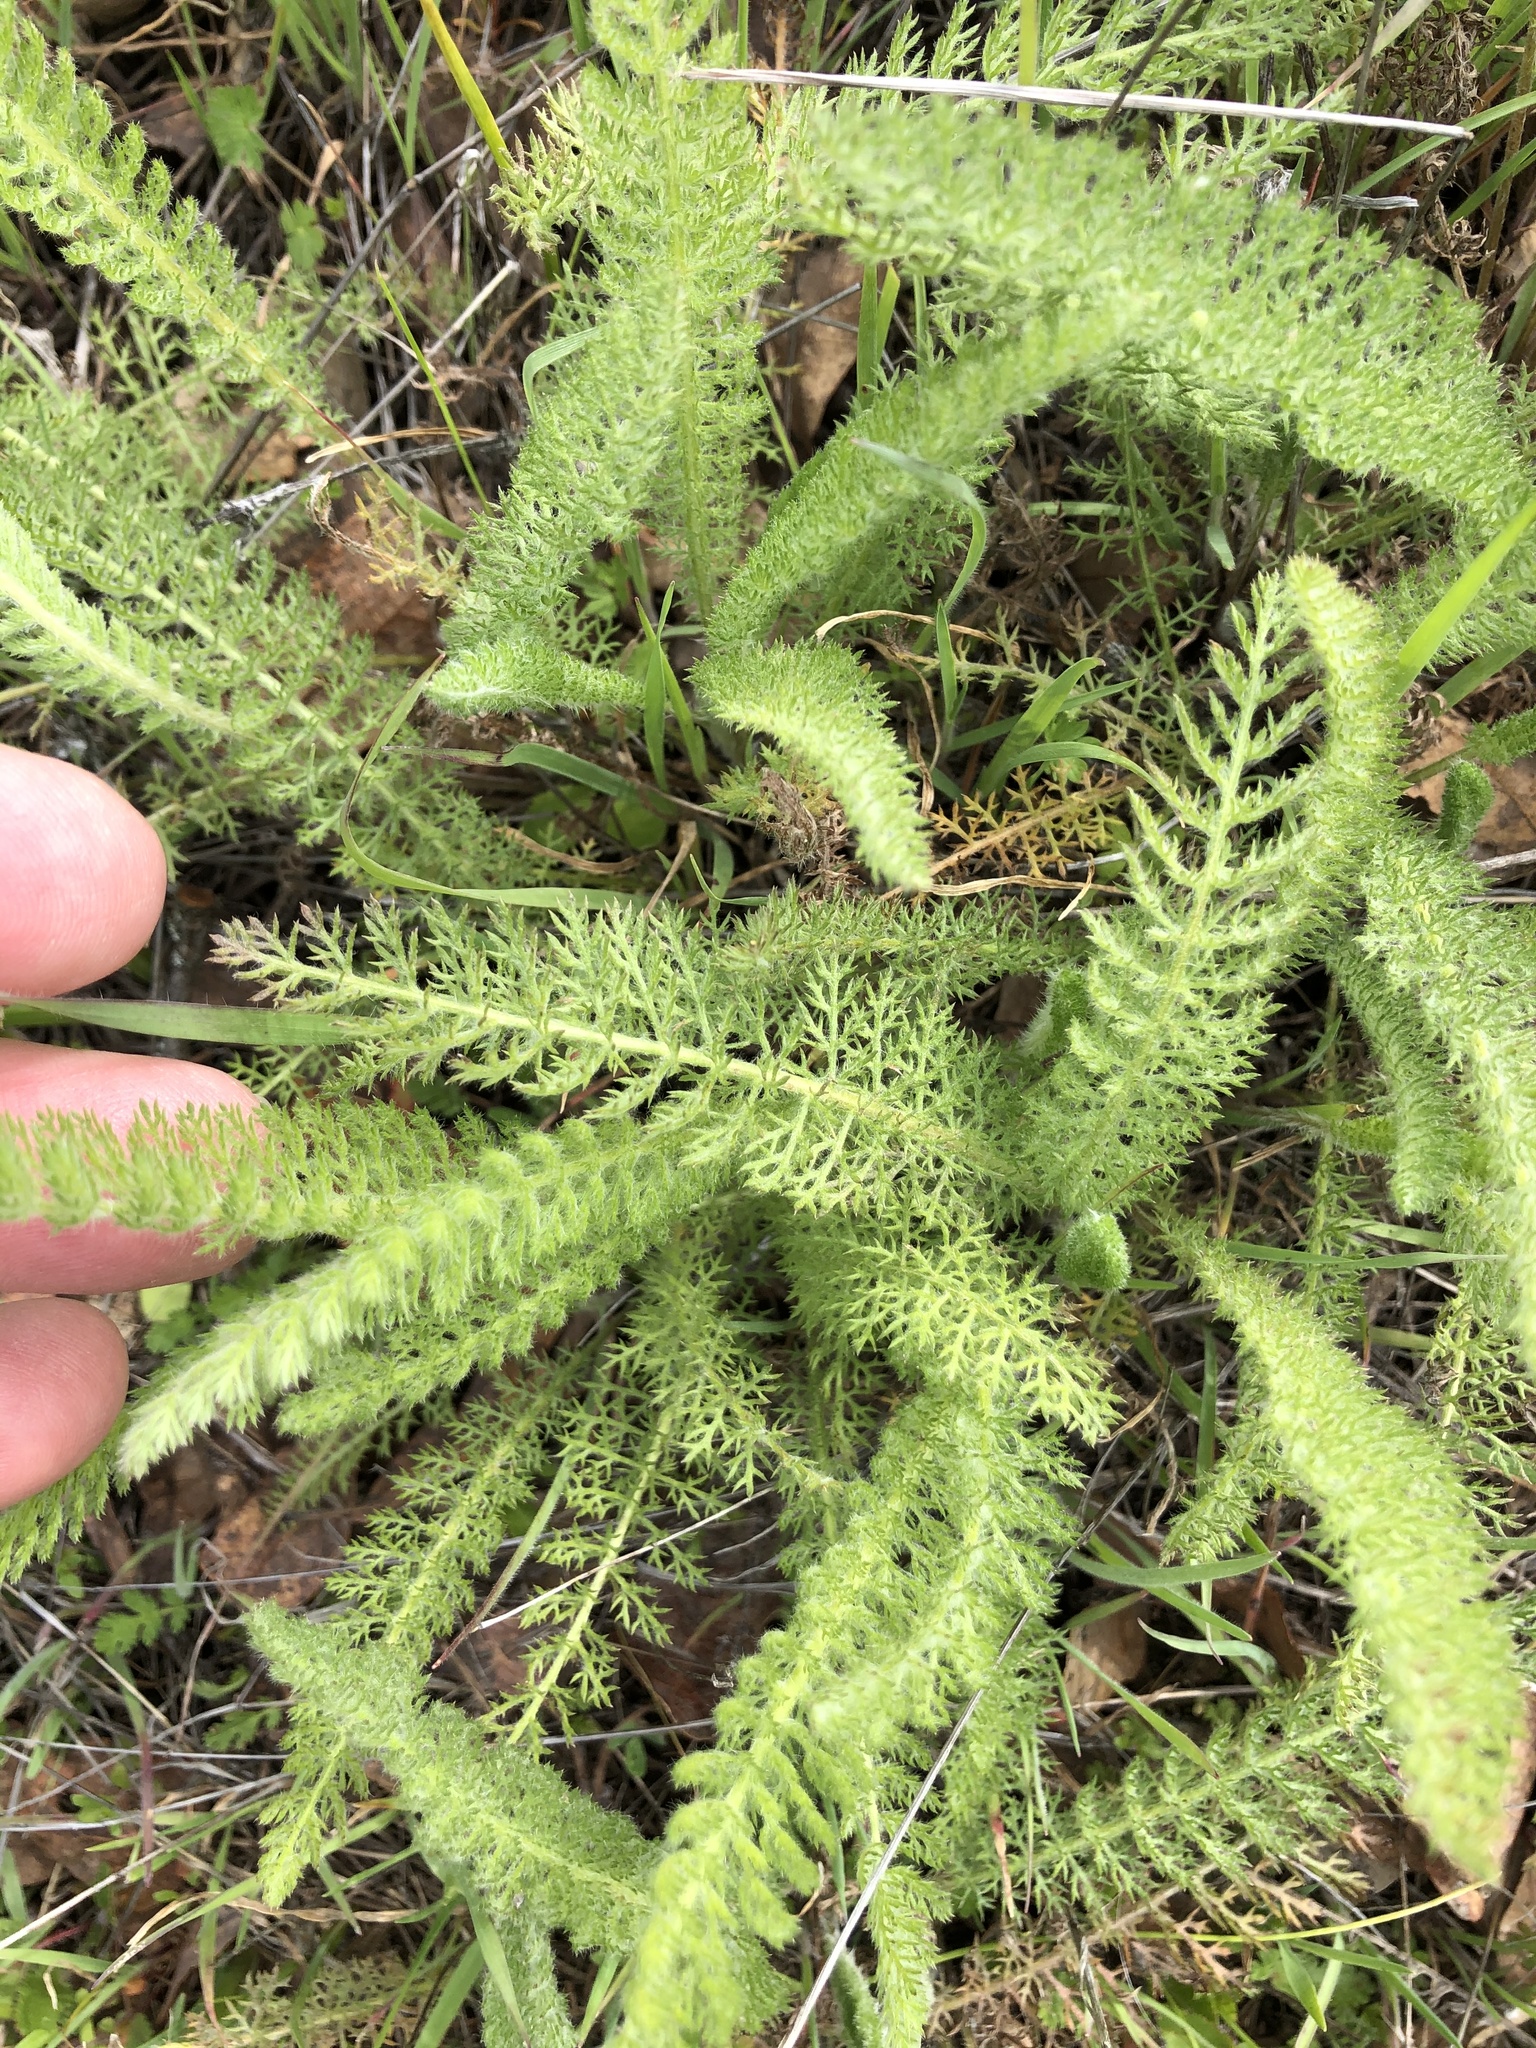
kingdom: Plantae
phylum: Tracheophyta
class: Magnoliopsida
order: Asterales
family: Asteraceae
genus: Achillea
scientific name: Achillea millefolium
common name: Yarrow
